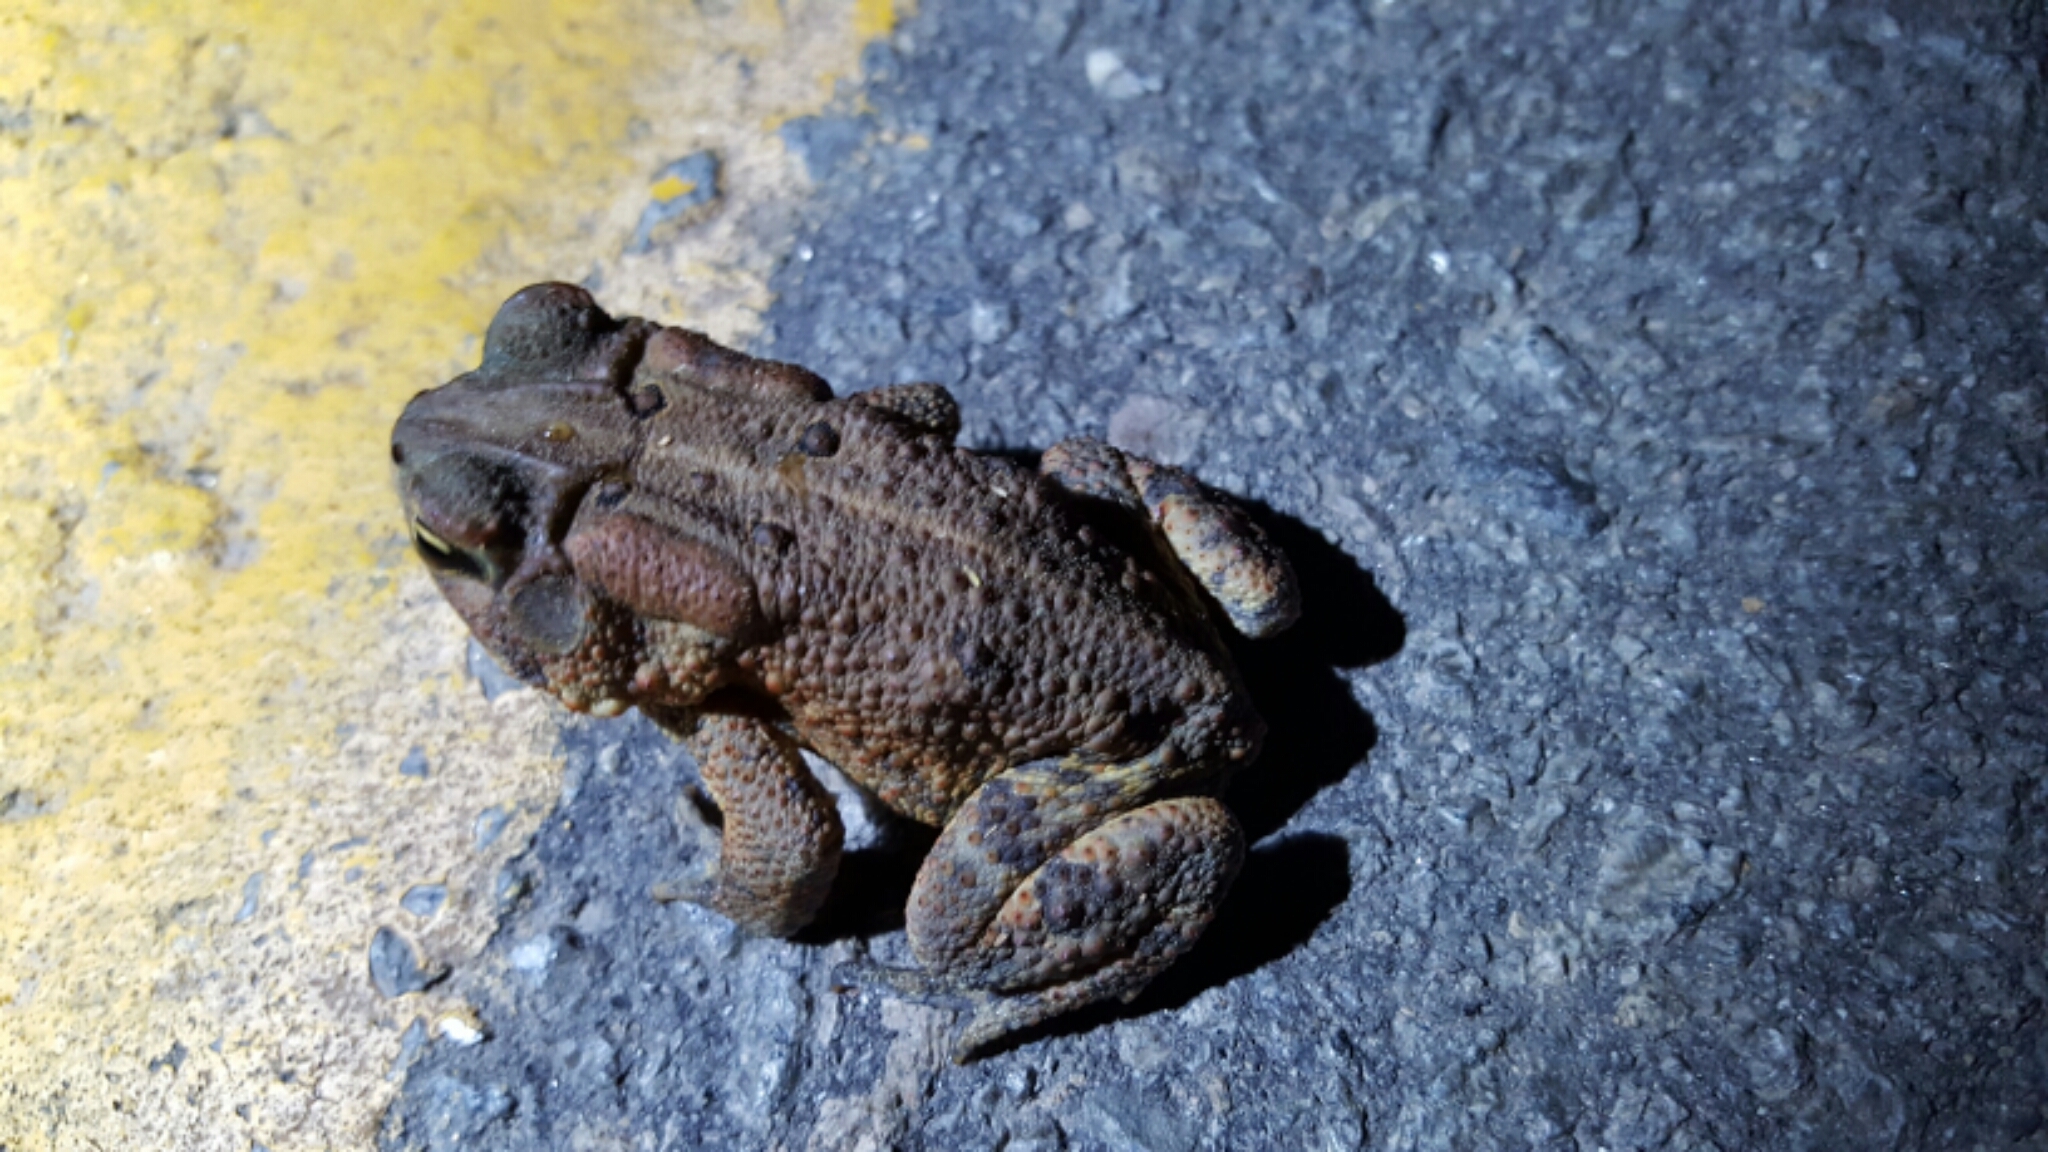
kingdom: Animalia
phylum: Chordata
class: Amphibia
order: Anura
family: Bufonidae
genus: Anaxyrus
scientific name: Anaxyrus americanus
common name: American toad
